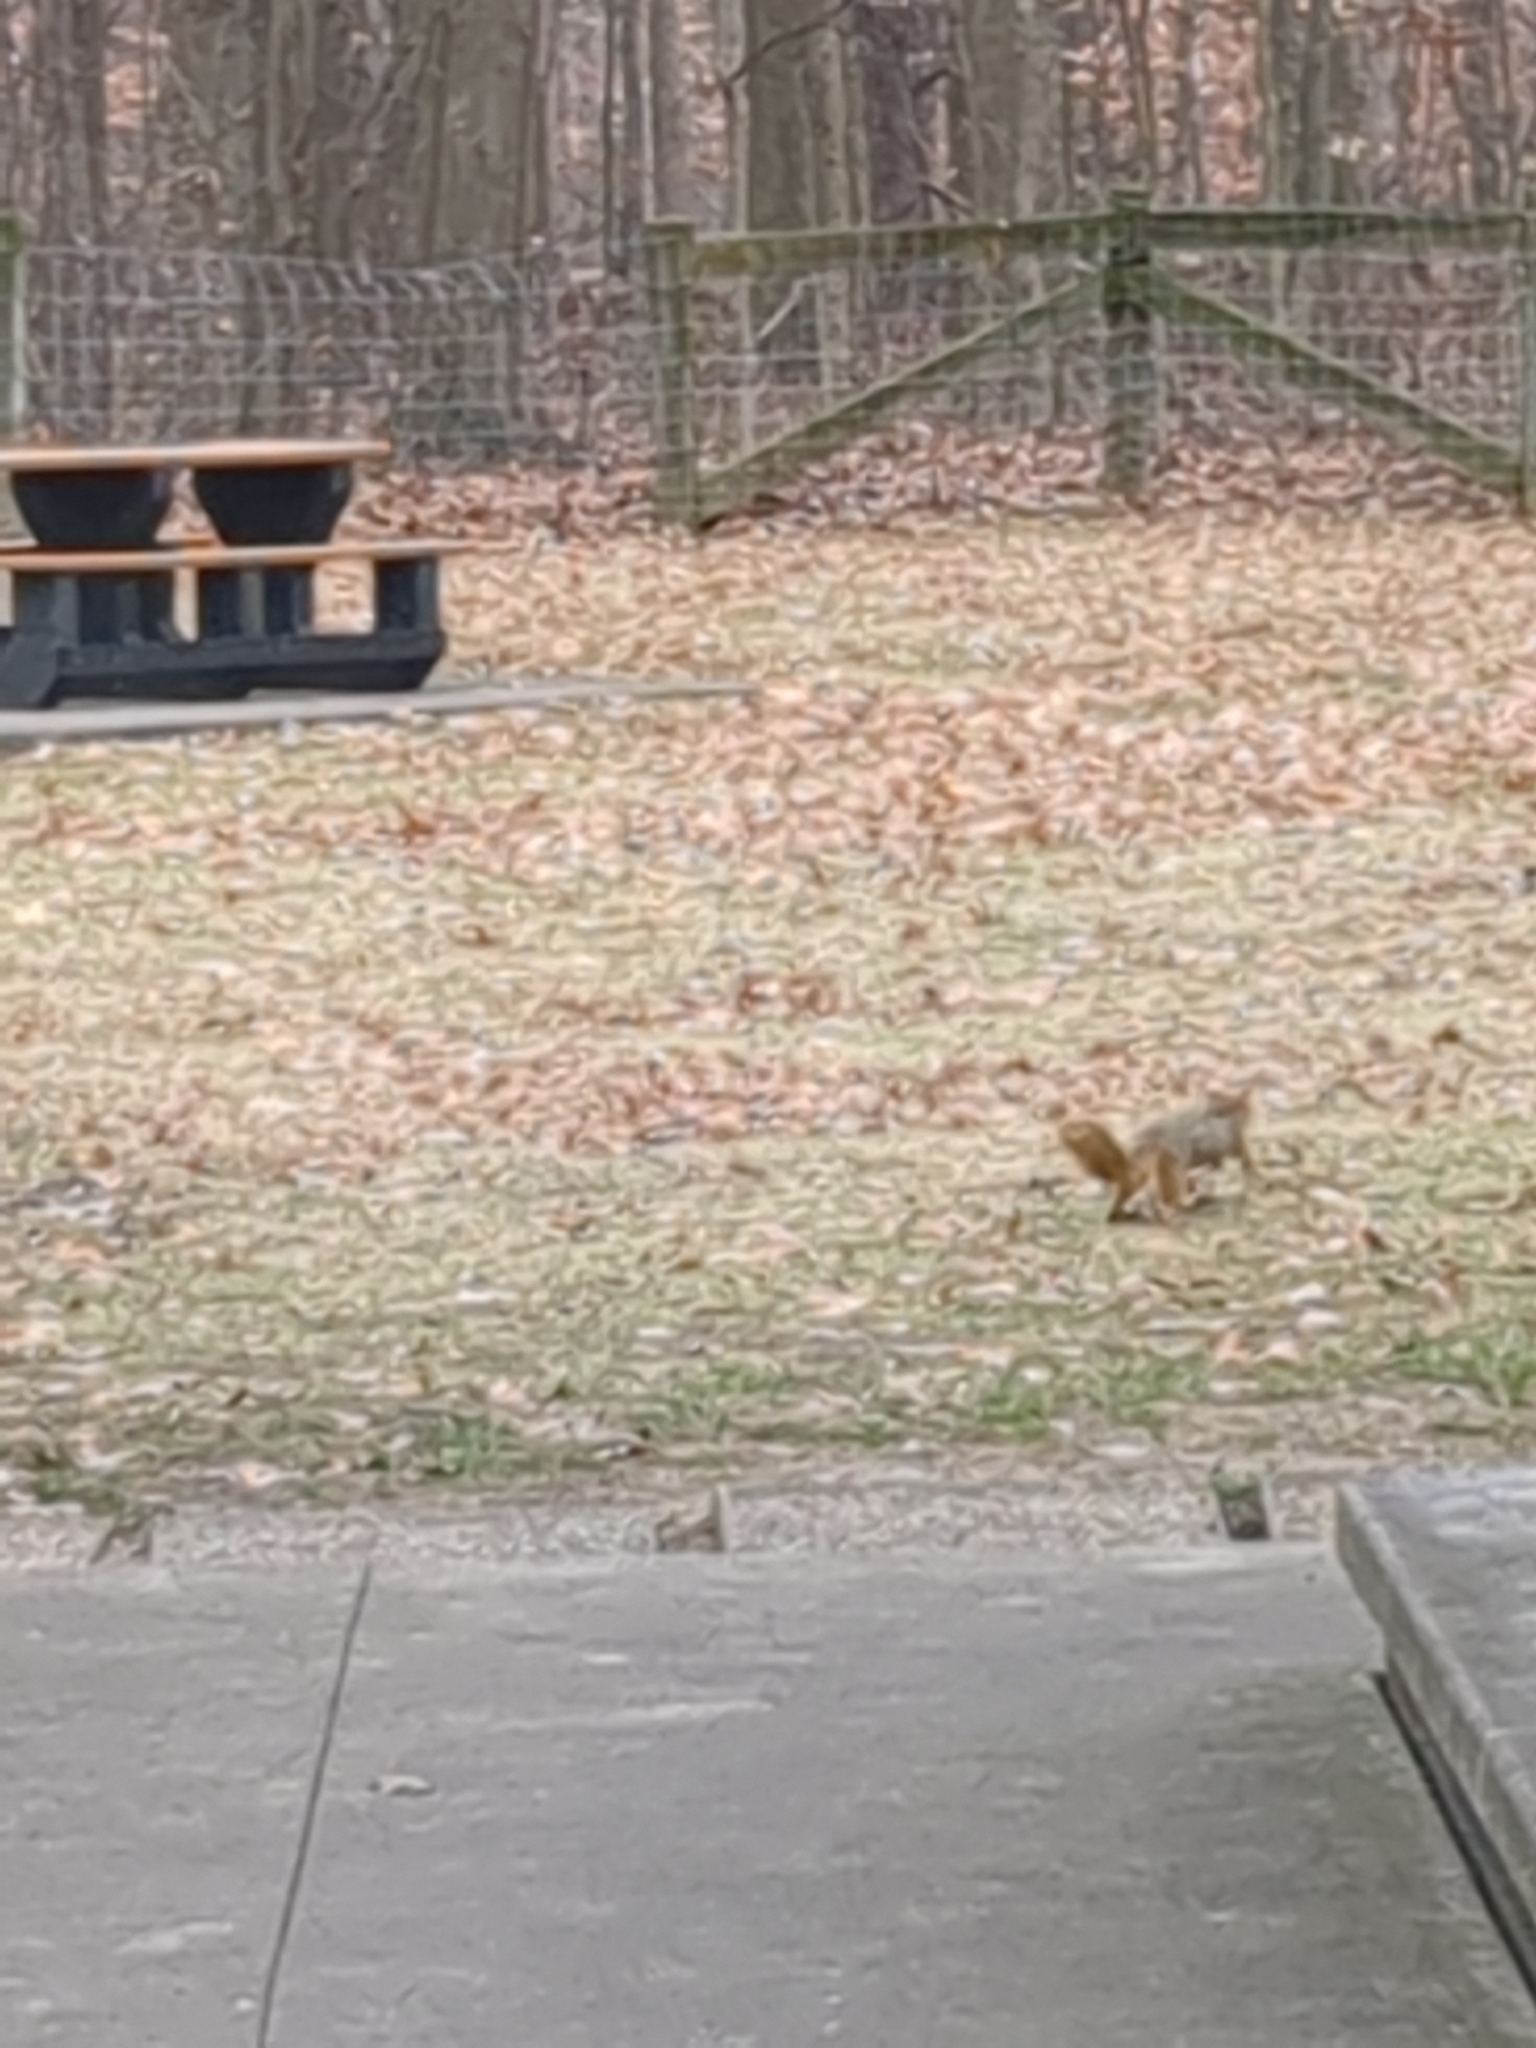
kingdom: Animalia
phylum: Chordata
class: Mammalia
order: Rodentia
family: Sciuridae
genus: Sciurus
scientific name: Sciurus niger
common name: Fox squirrel
